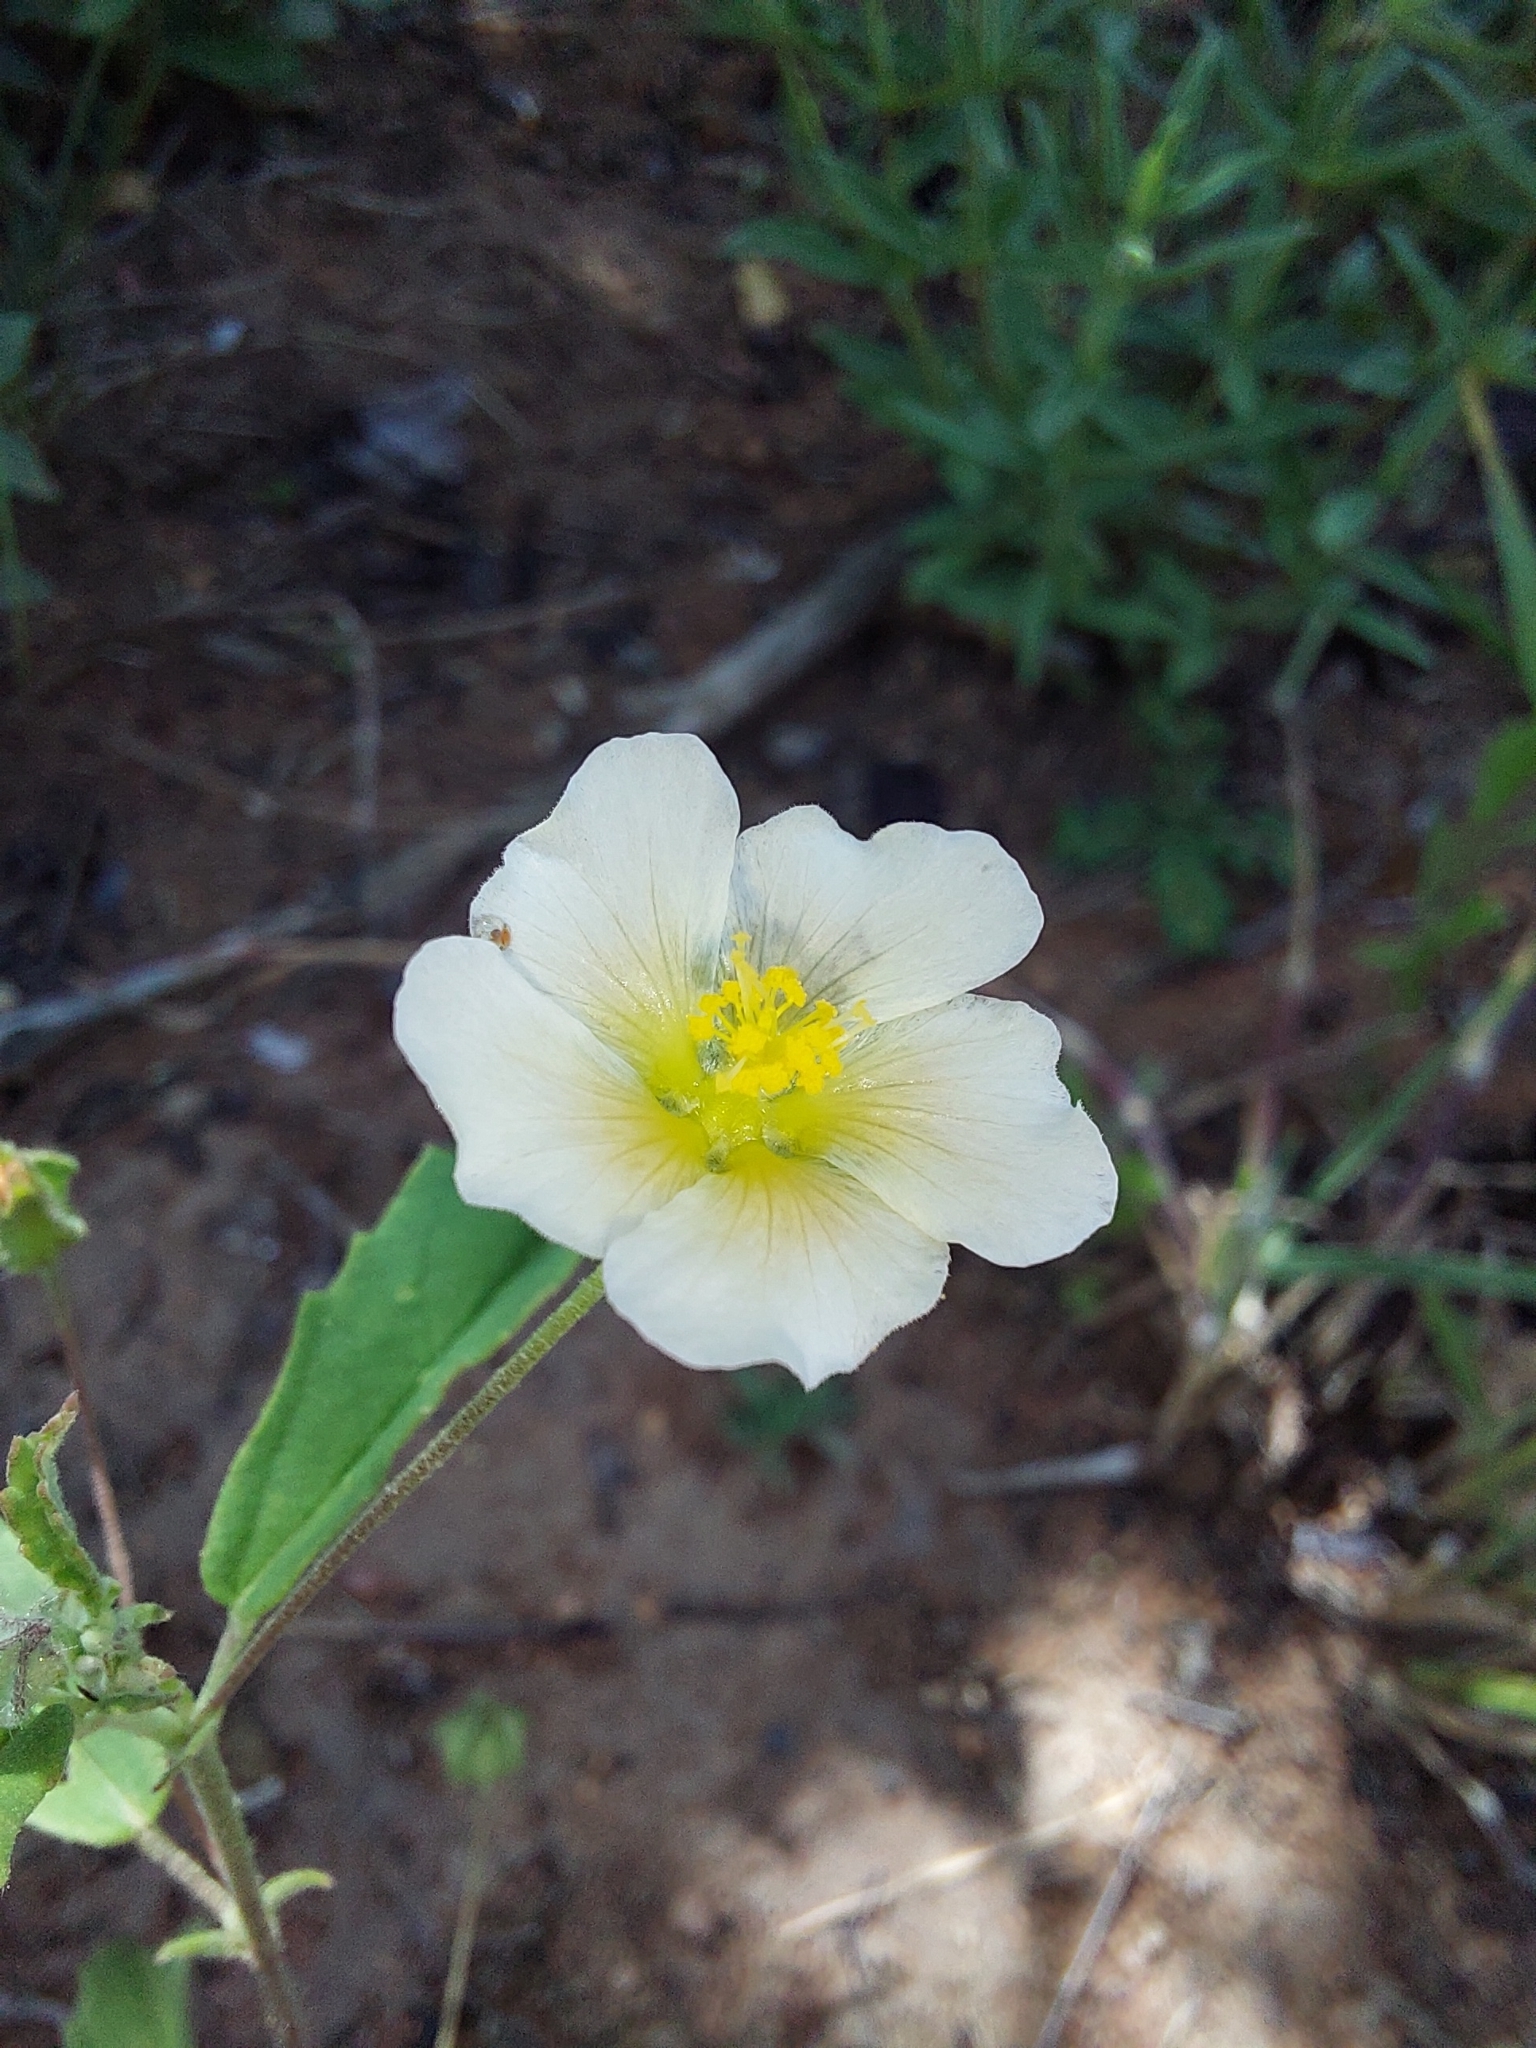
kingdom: Plantae
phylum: Tracheophyta
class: Magnoliopsida
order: Malvales
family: Malvaceae
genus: Sida
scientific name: Sida alba
